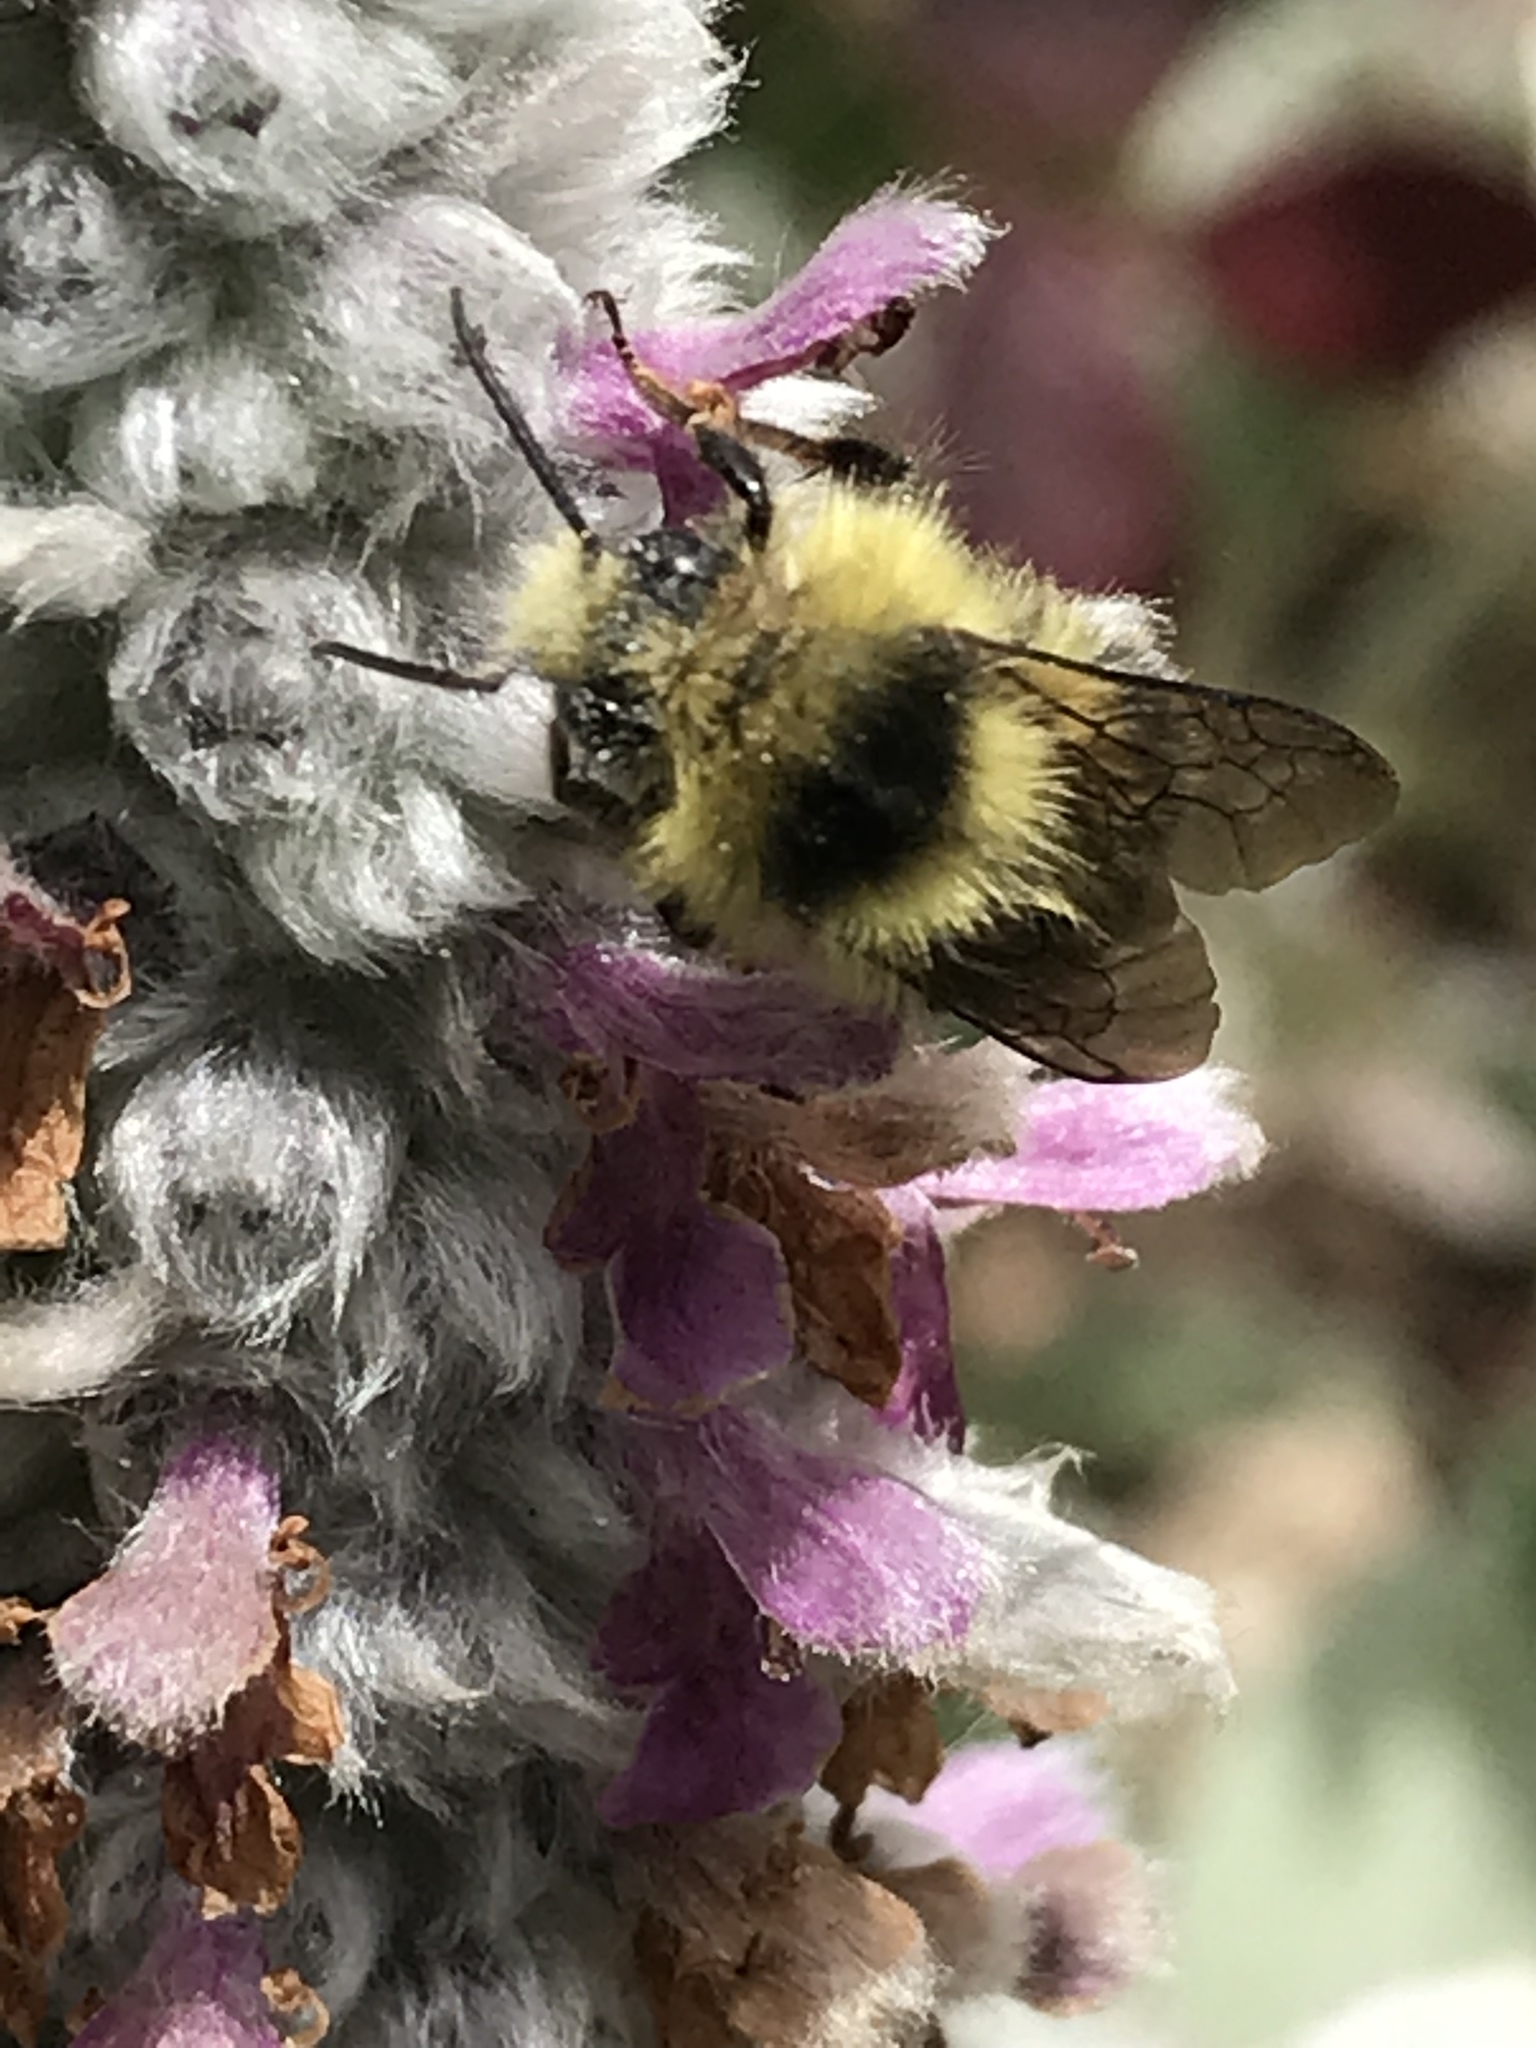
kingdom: Animalia
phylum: Arthropoda
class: Insecta
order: Hymenoptera
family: Apidae
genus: Bombus
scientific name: Bombus melanopygus
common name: Black tail bumble bee
